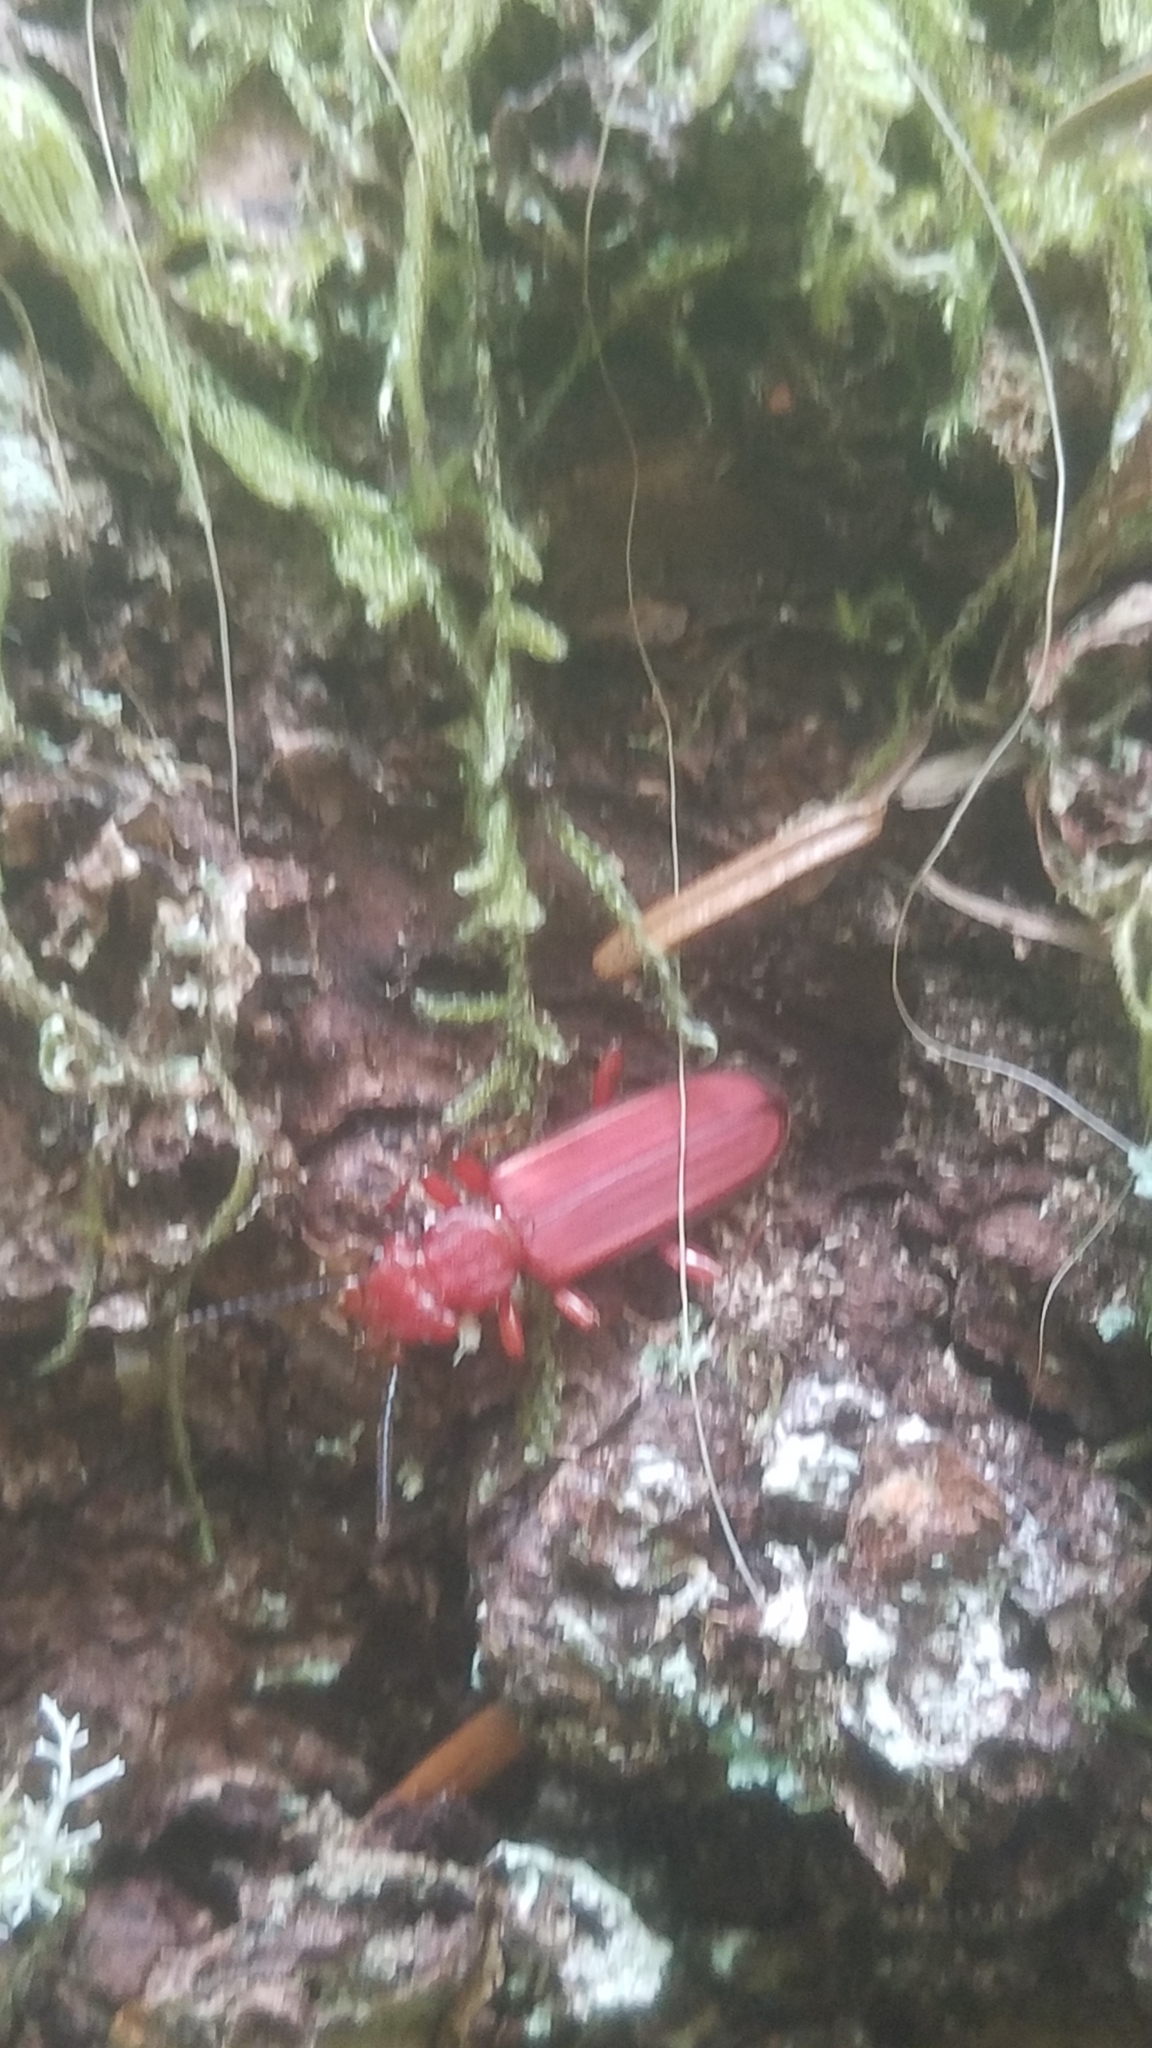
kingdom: Animalia
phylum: Arthropoda
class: Insecta
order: Coleoptera
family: Cucujidae
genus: Cucujus
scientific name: Cucujus clavipes
